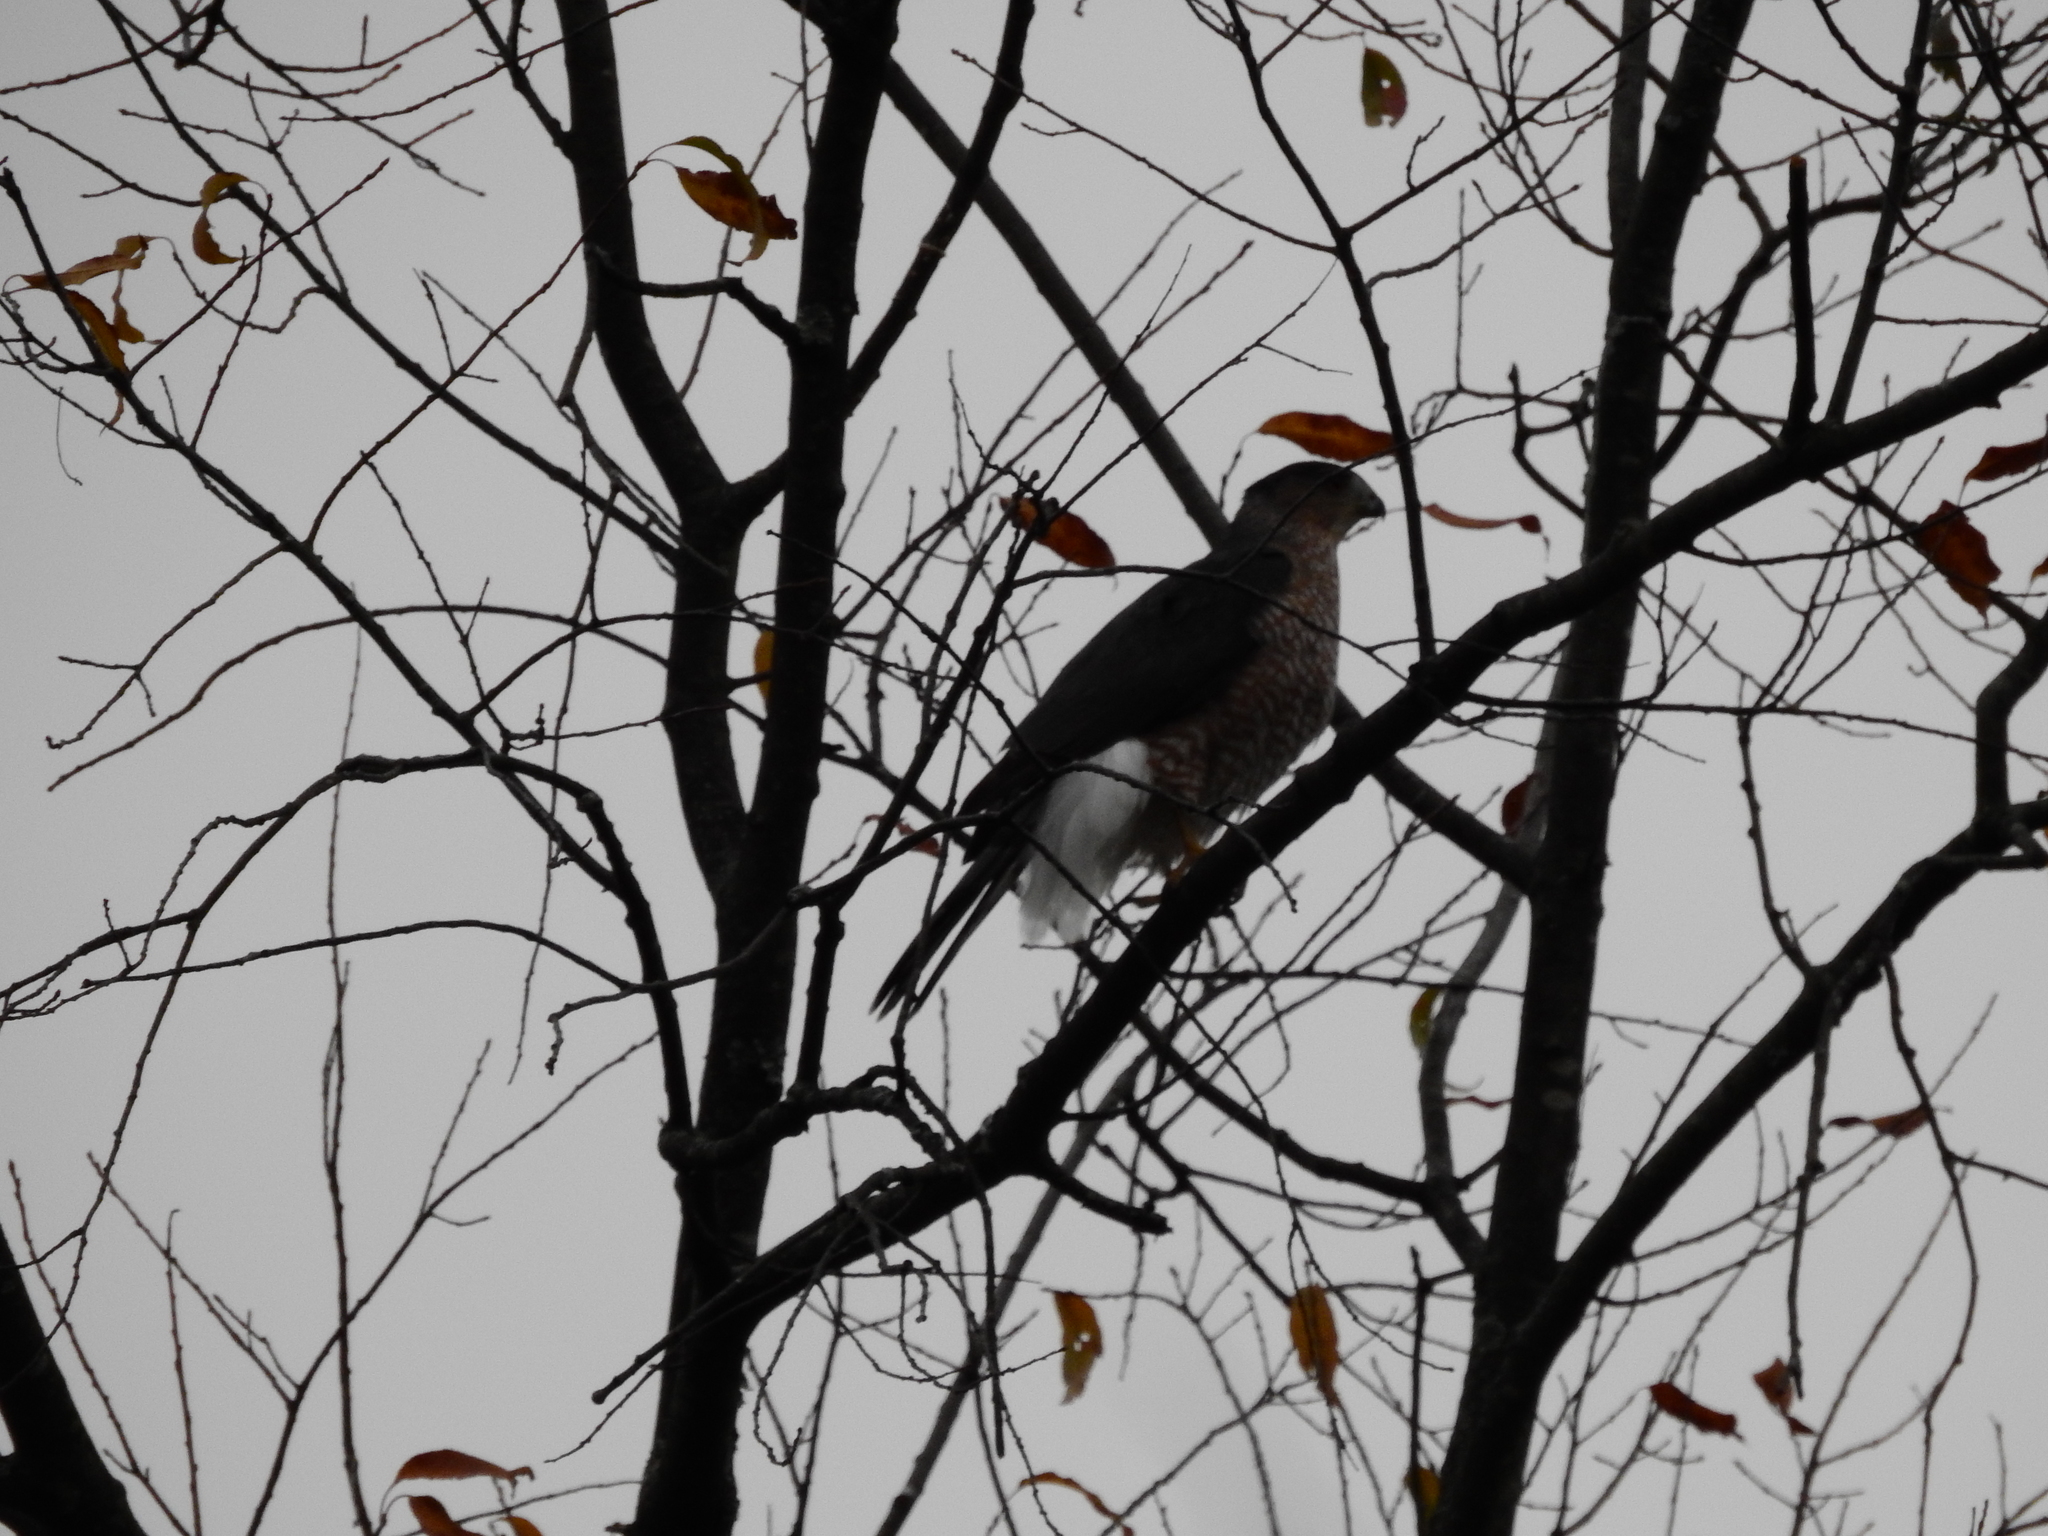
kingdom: Animalia
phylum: Chordata
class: Aves
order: Accipitriformes
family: Accipitridae
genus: Accipiter
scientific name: Accipiter cooperii
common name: Cooper's hawk
